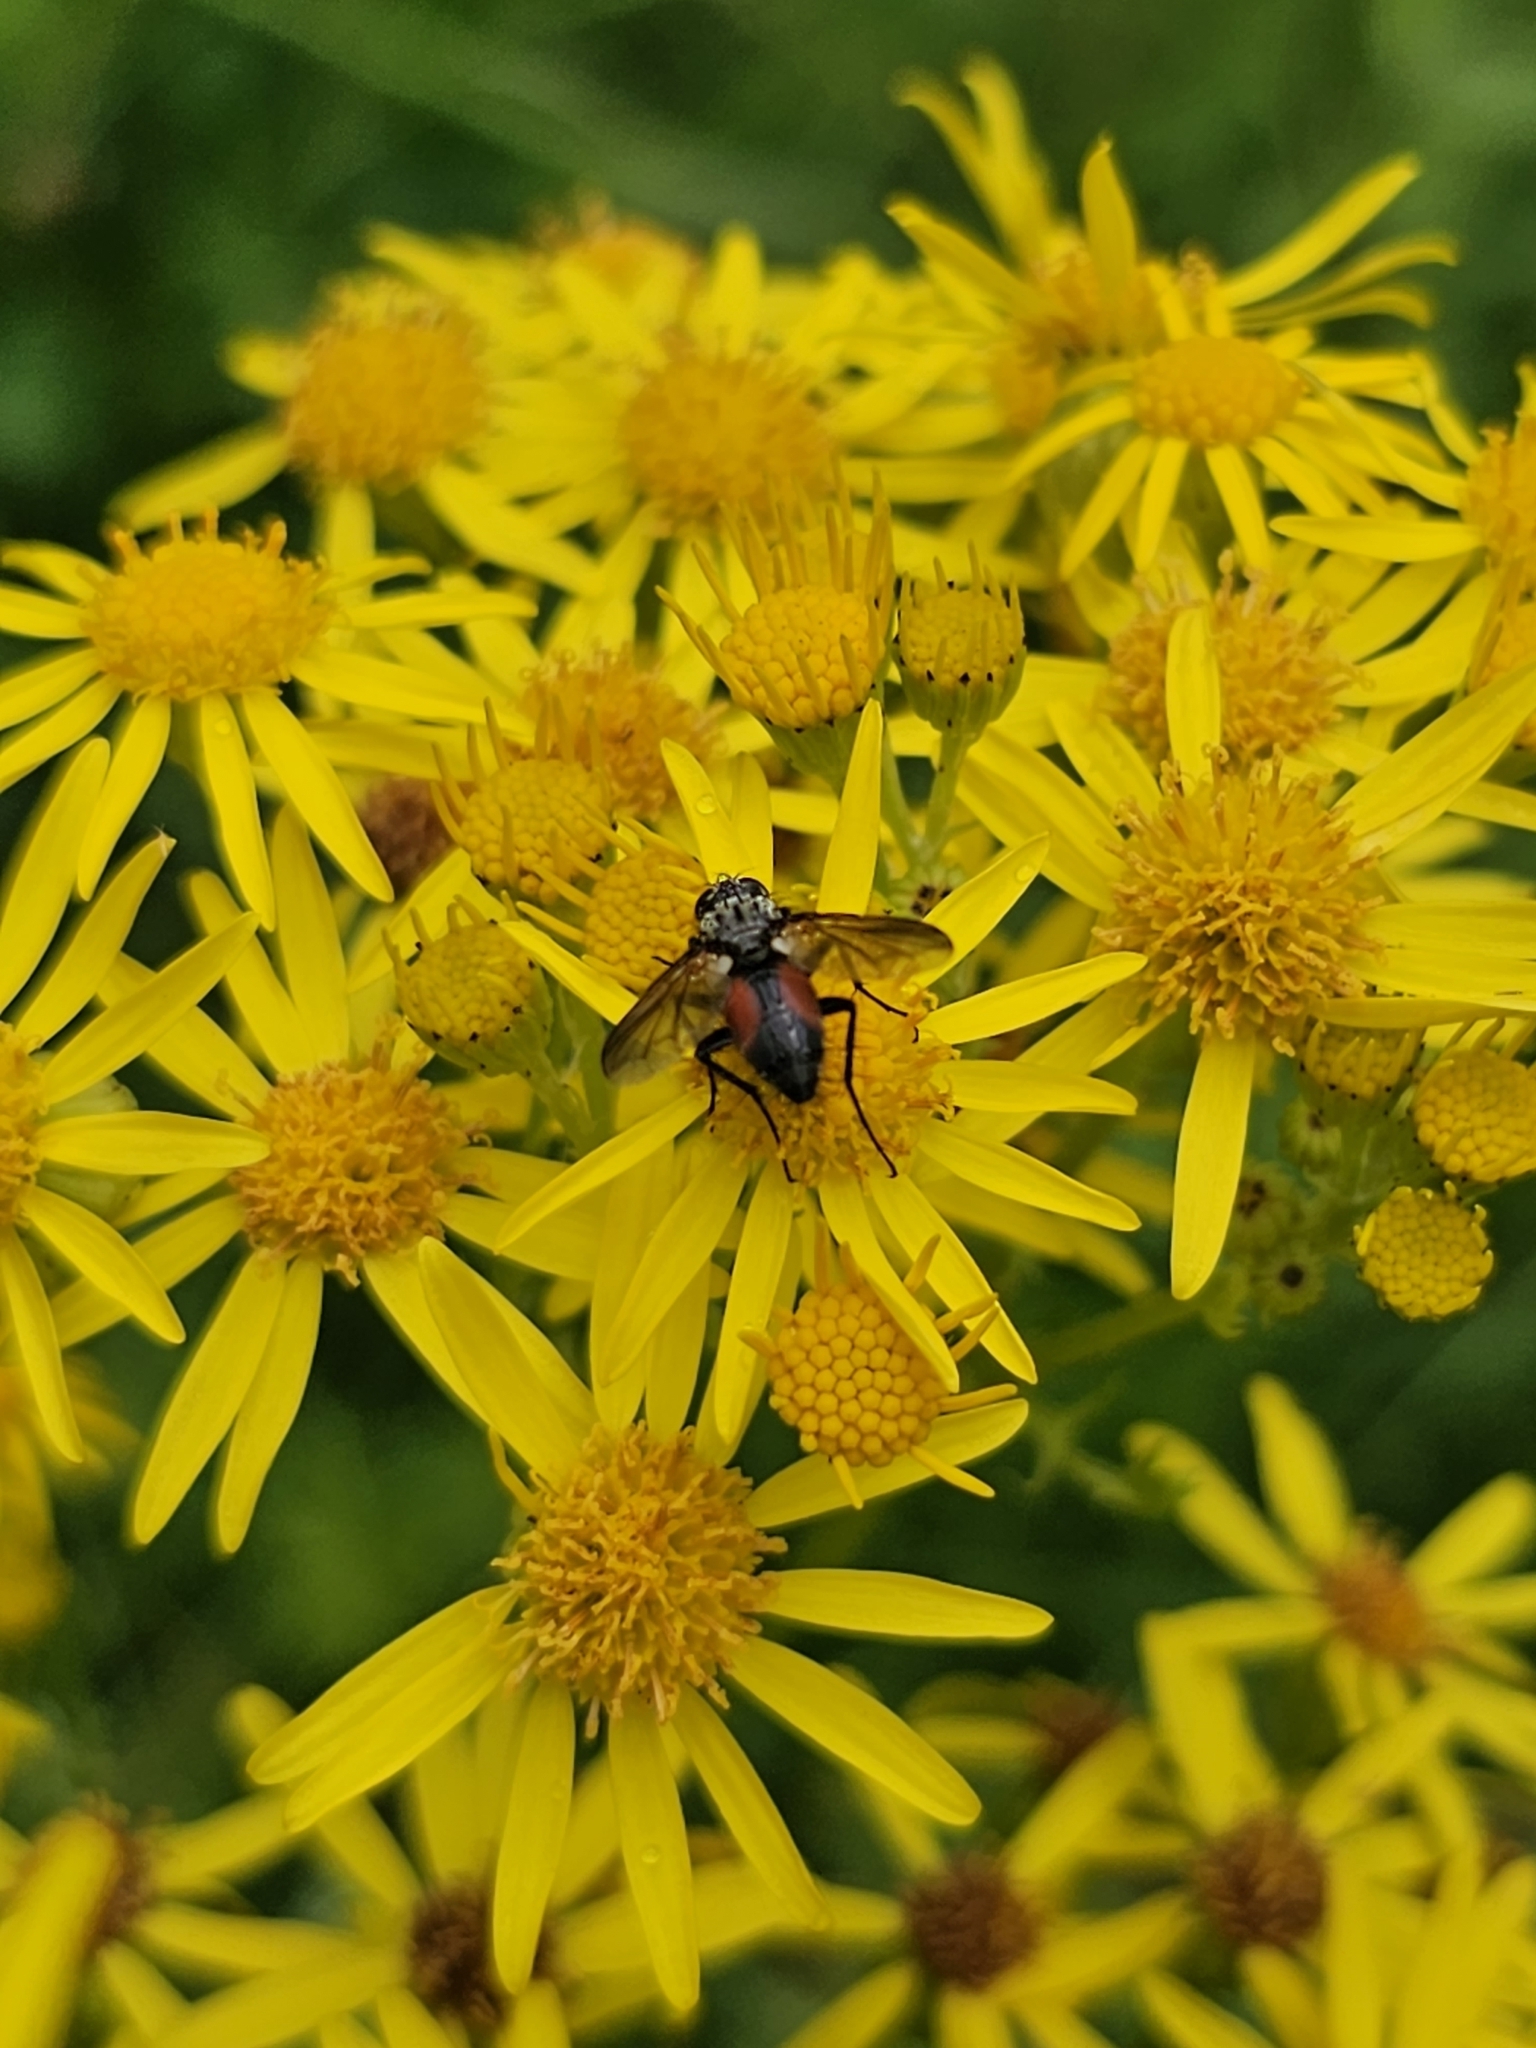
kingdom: Animalia
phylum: Arthropoda
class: Insecta
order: Diptera
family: Tachinidae
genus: Eriothrix
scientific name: Eriothrix rufomaculatus
